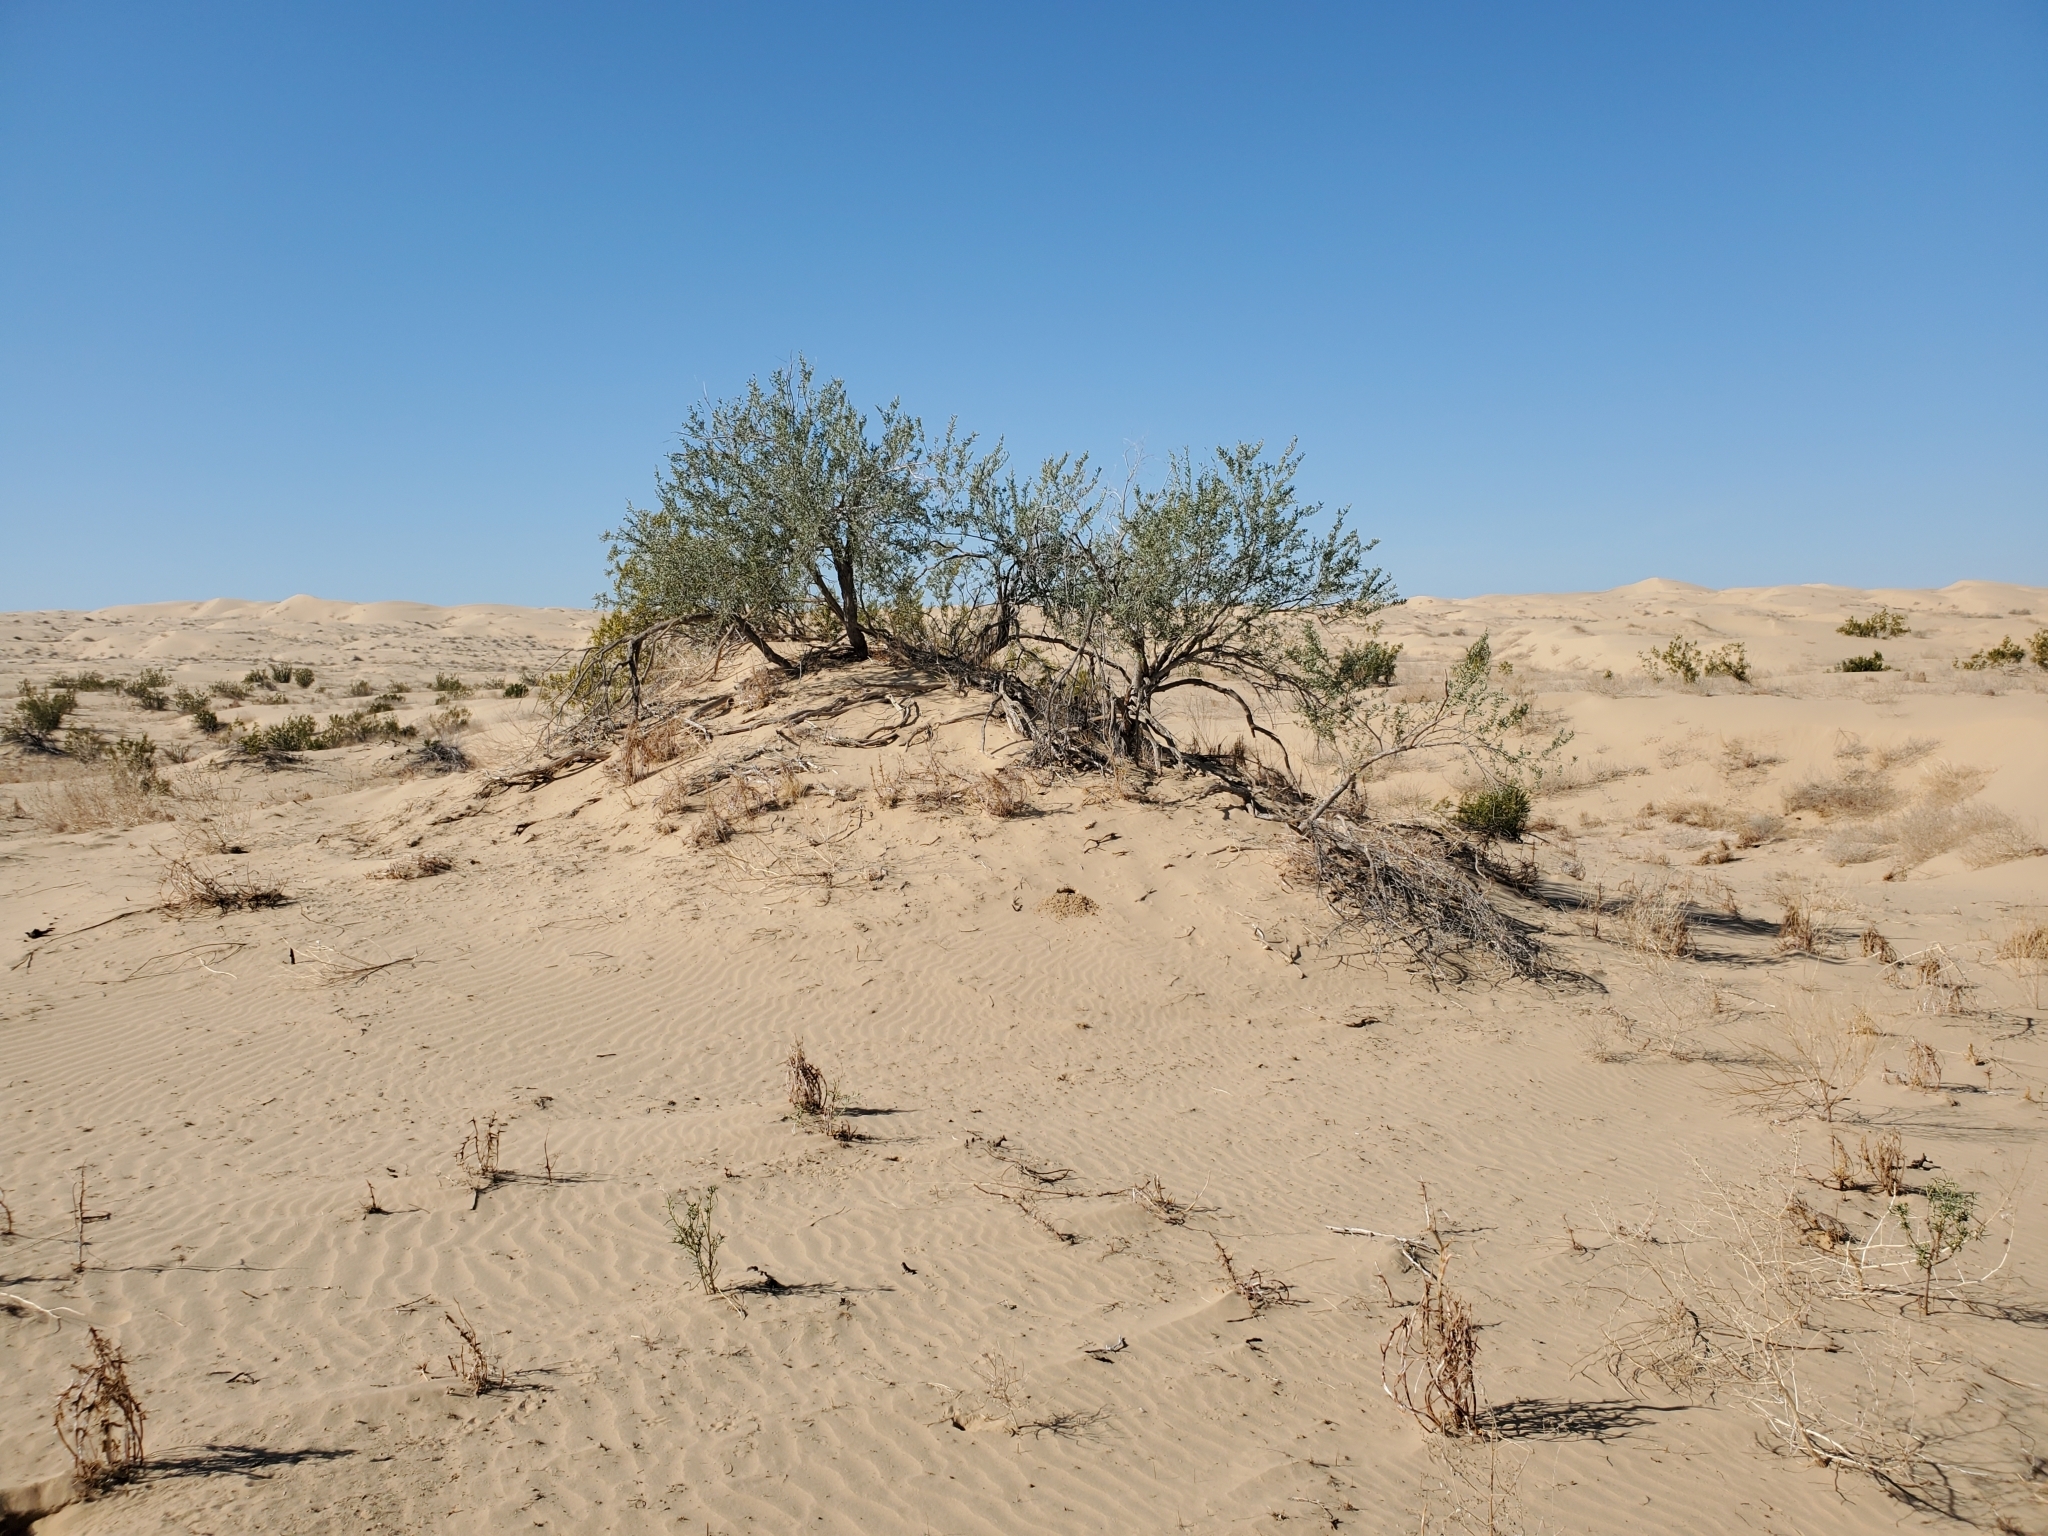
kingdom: Plantae
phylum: Tracheophyta
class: Magnoliopsida
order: Fabales
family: Fabaceae
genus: Olneya
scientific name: Olneya tesota
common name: Desert ironwood
